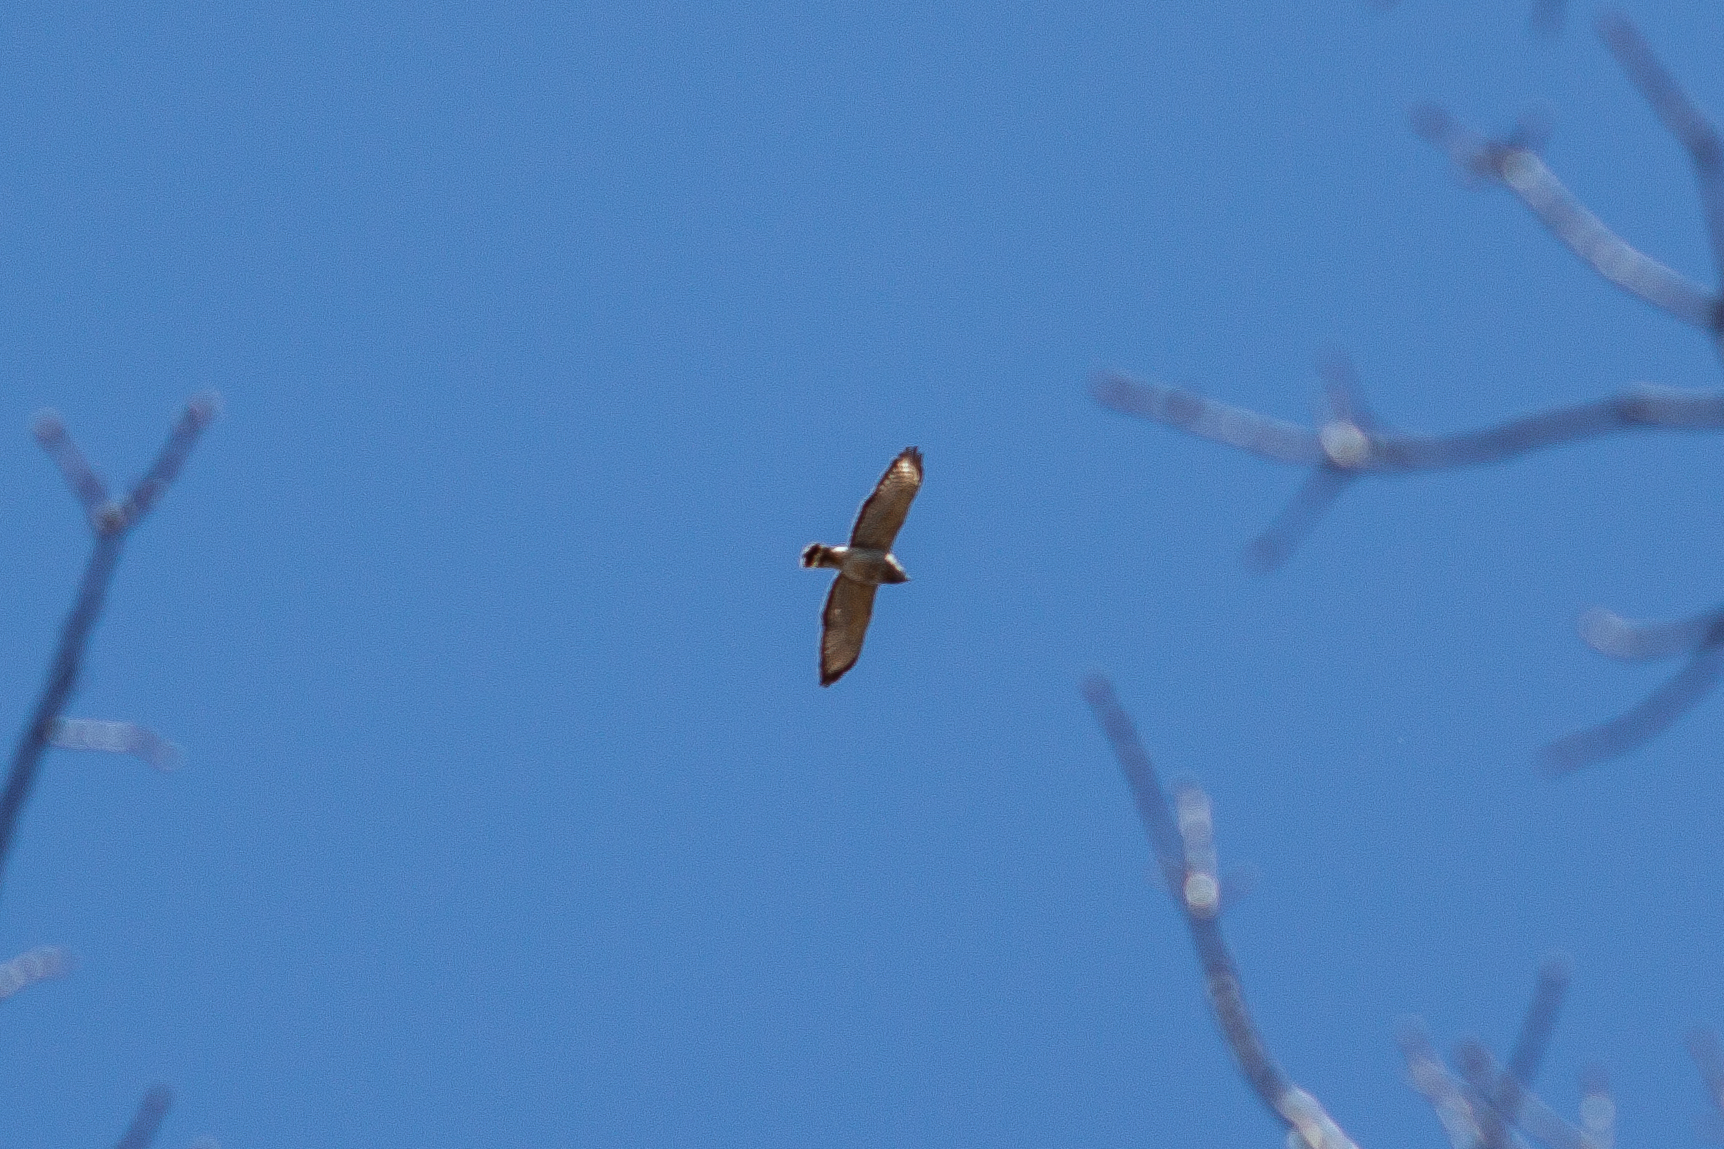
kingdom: Animalia
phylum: Chordata
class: Aves
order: Accipitriformes
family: Accipitridae
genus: Buteo
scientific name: Buteo platypterus
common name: Broad-winged hawk
